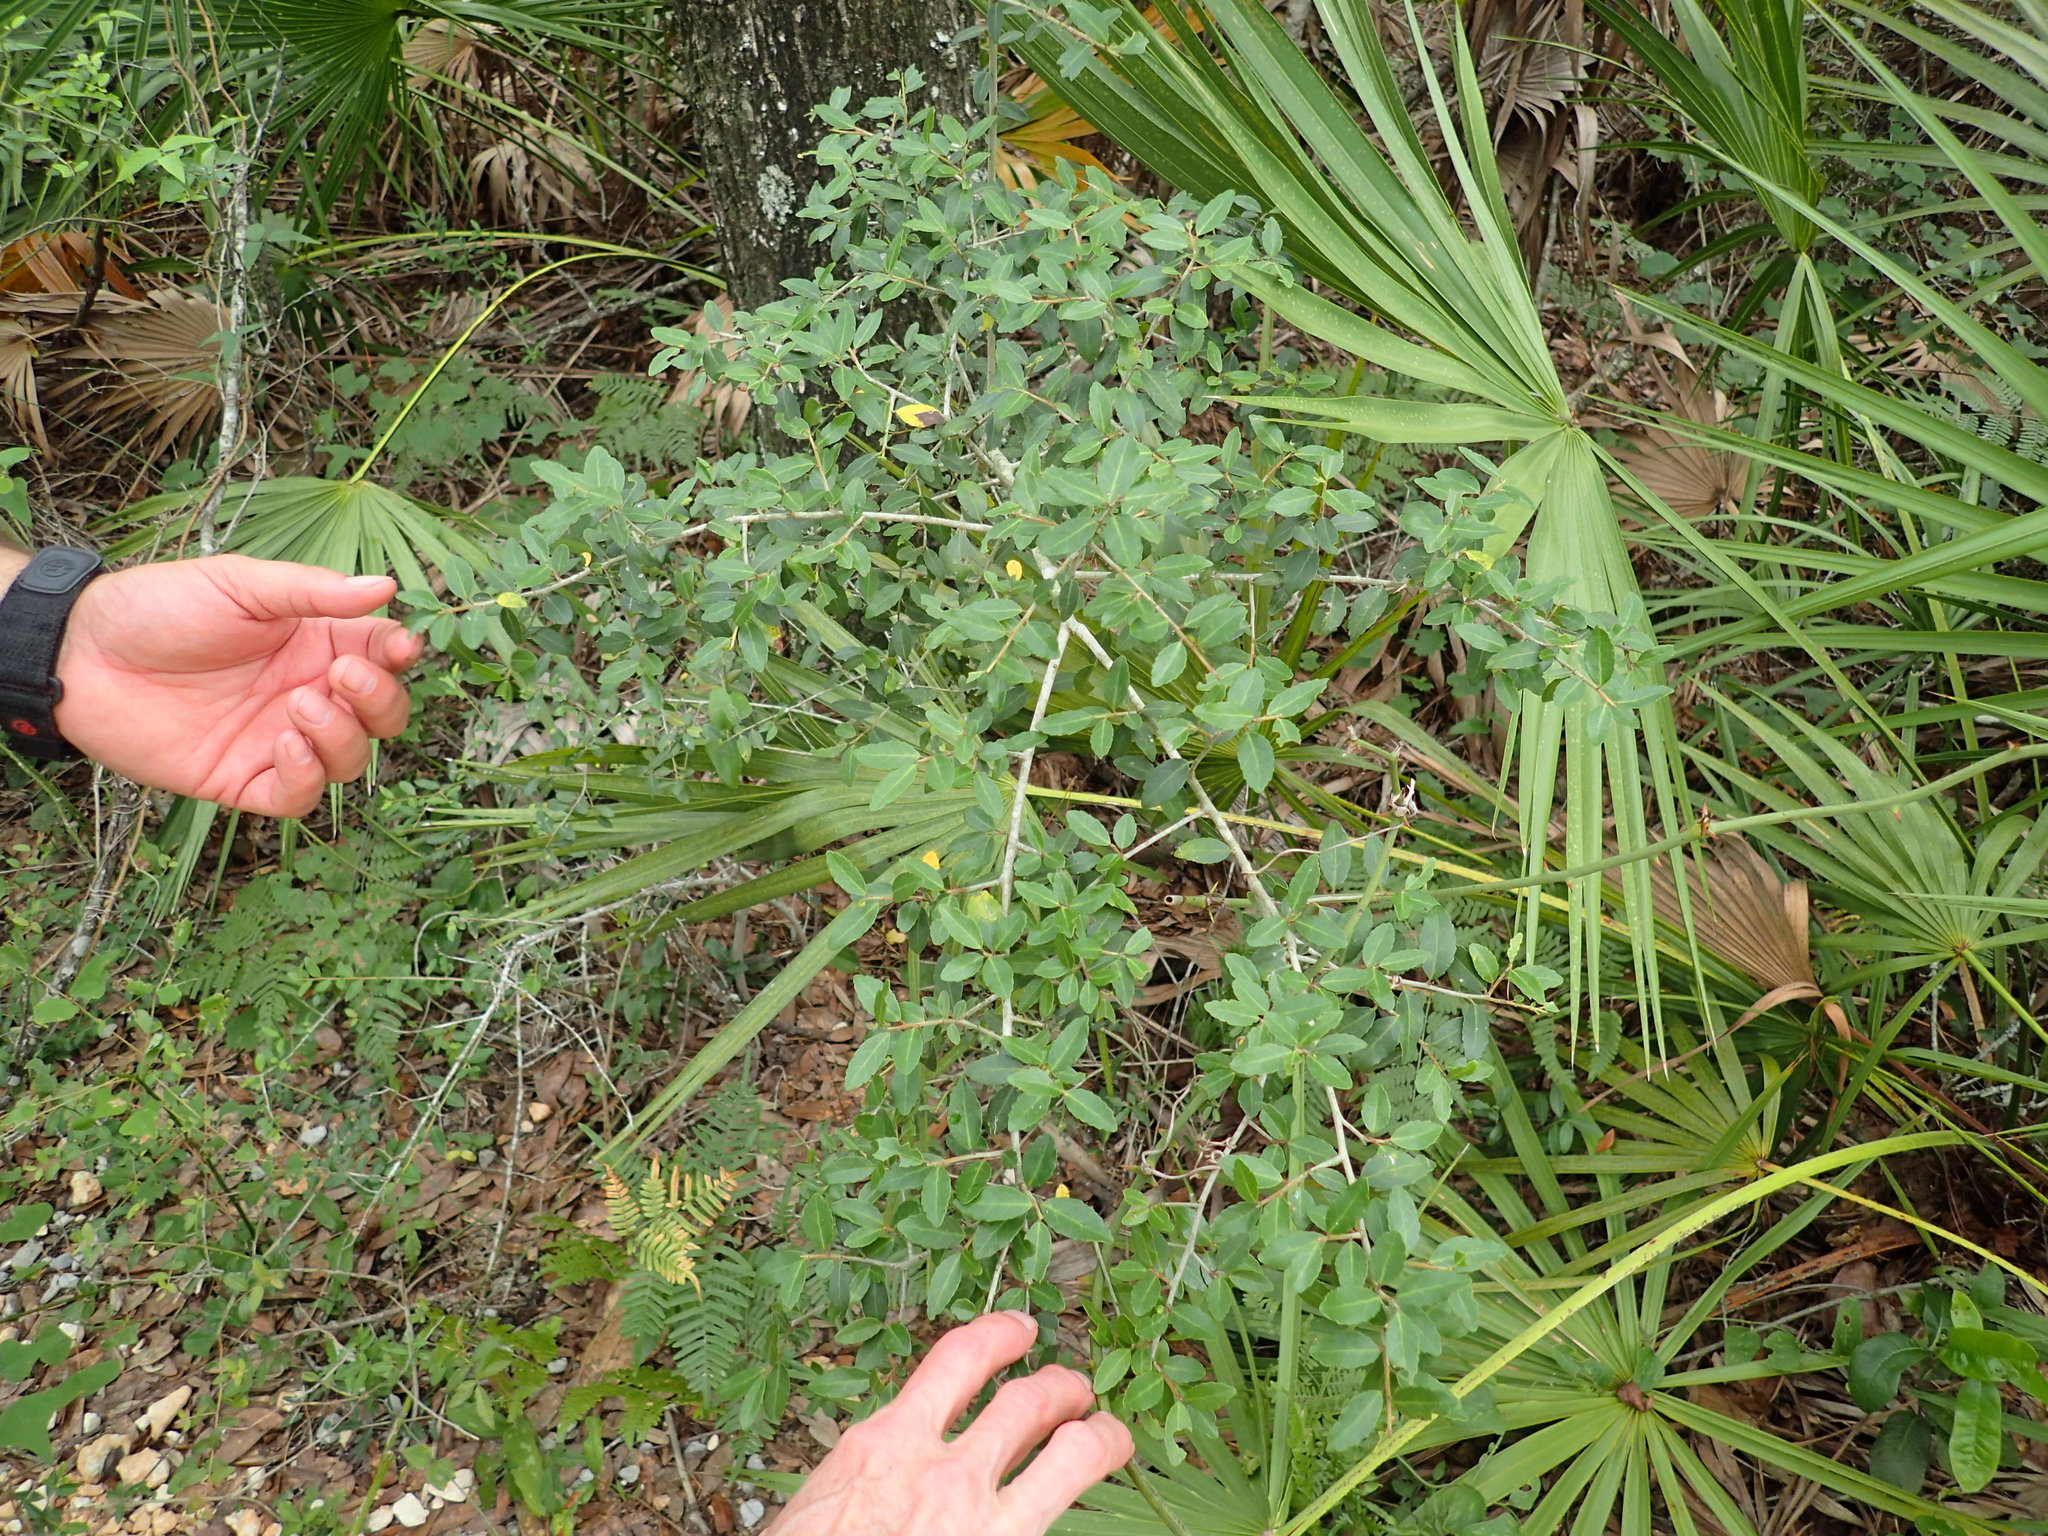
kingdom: Plantae
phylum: Tracheophyta
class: Magnoliopsida
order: Aquifoliales
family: Aquifoliaceae
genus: Ilex
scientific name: Ilex vomitoria
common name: Yaupon holly
